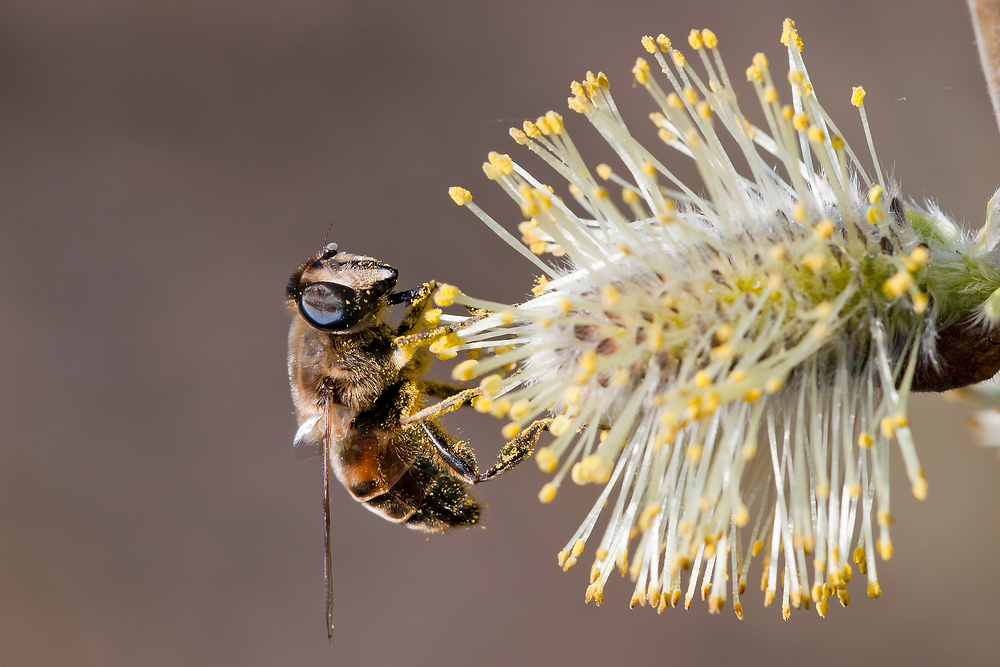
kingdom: Animalia
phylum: Arthropoda
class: Insecta
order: Diptera
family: Syrphidae
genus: Eristalis
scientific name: Eristalis tenax
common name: Drone fly
